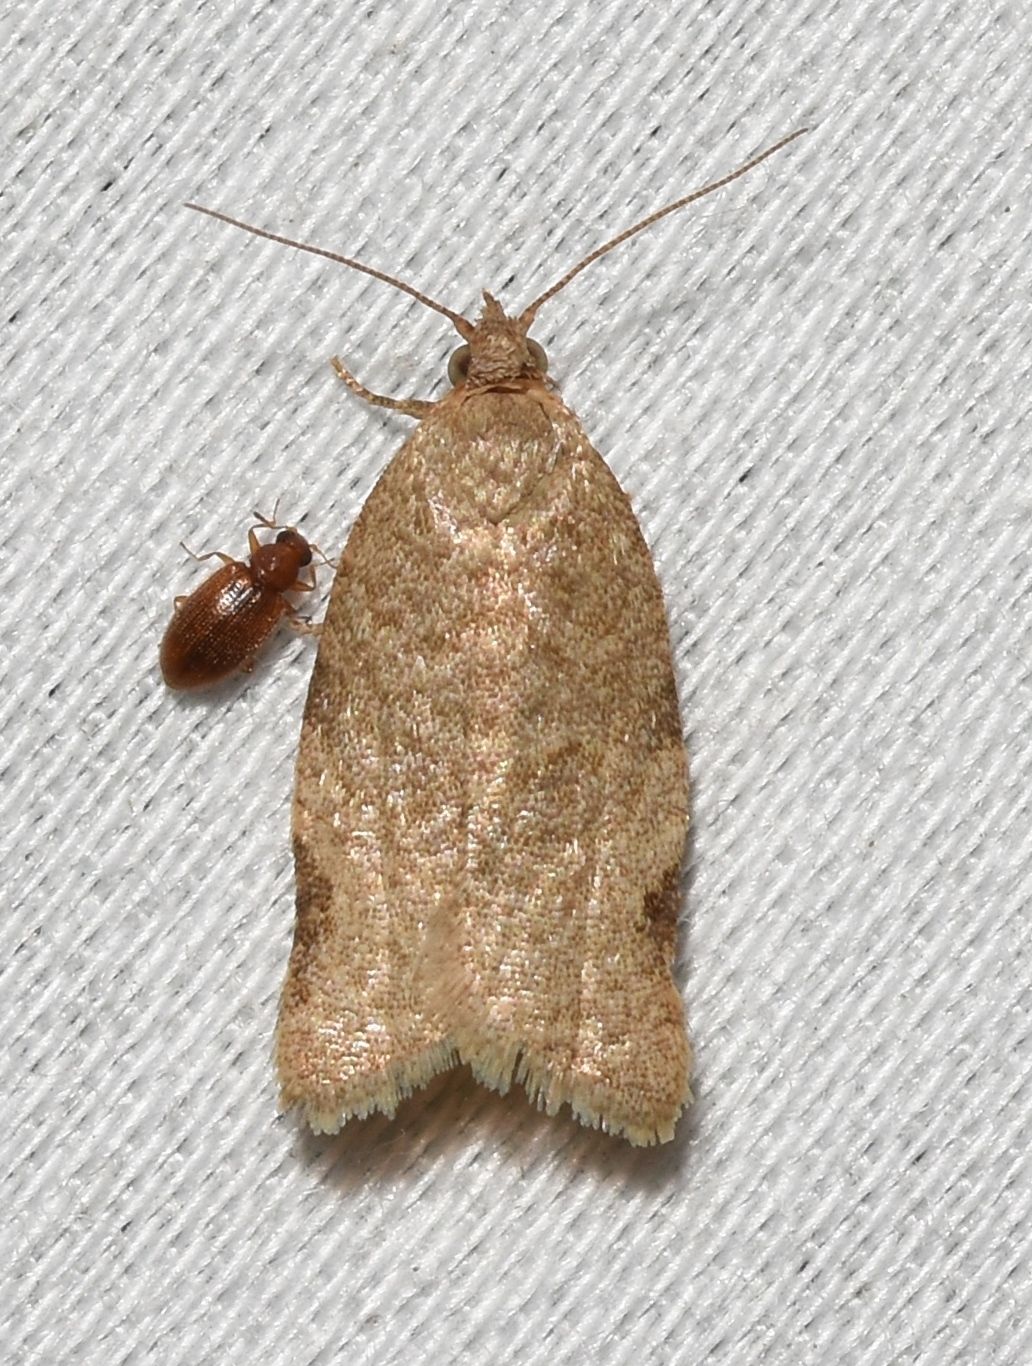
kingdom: Animalia
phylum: Arthropoda
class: Insecta
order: Lepidoptera
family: Tortricidae
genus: Clepsis
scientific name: Clepsis virescana
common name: Greenish apple moth
